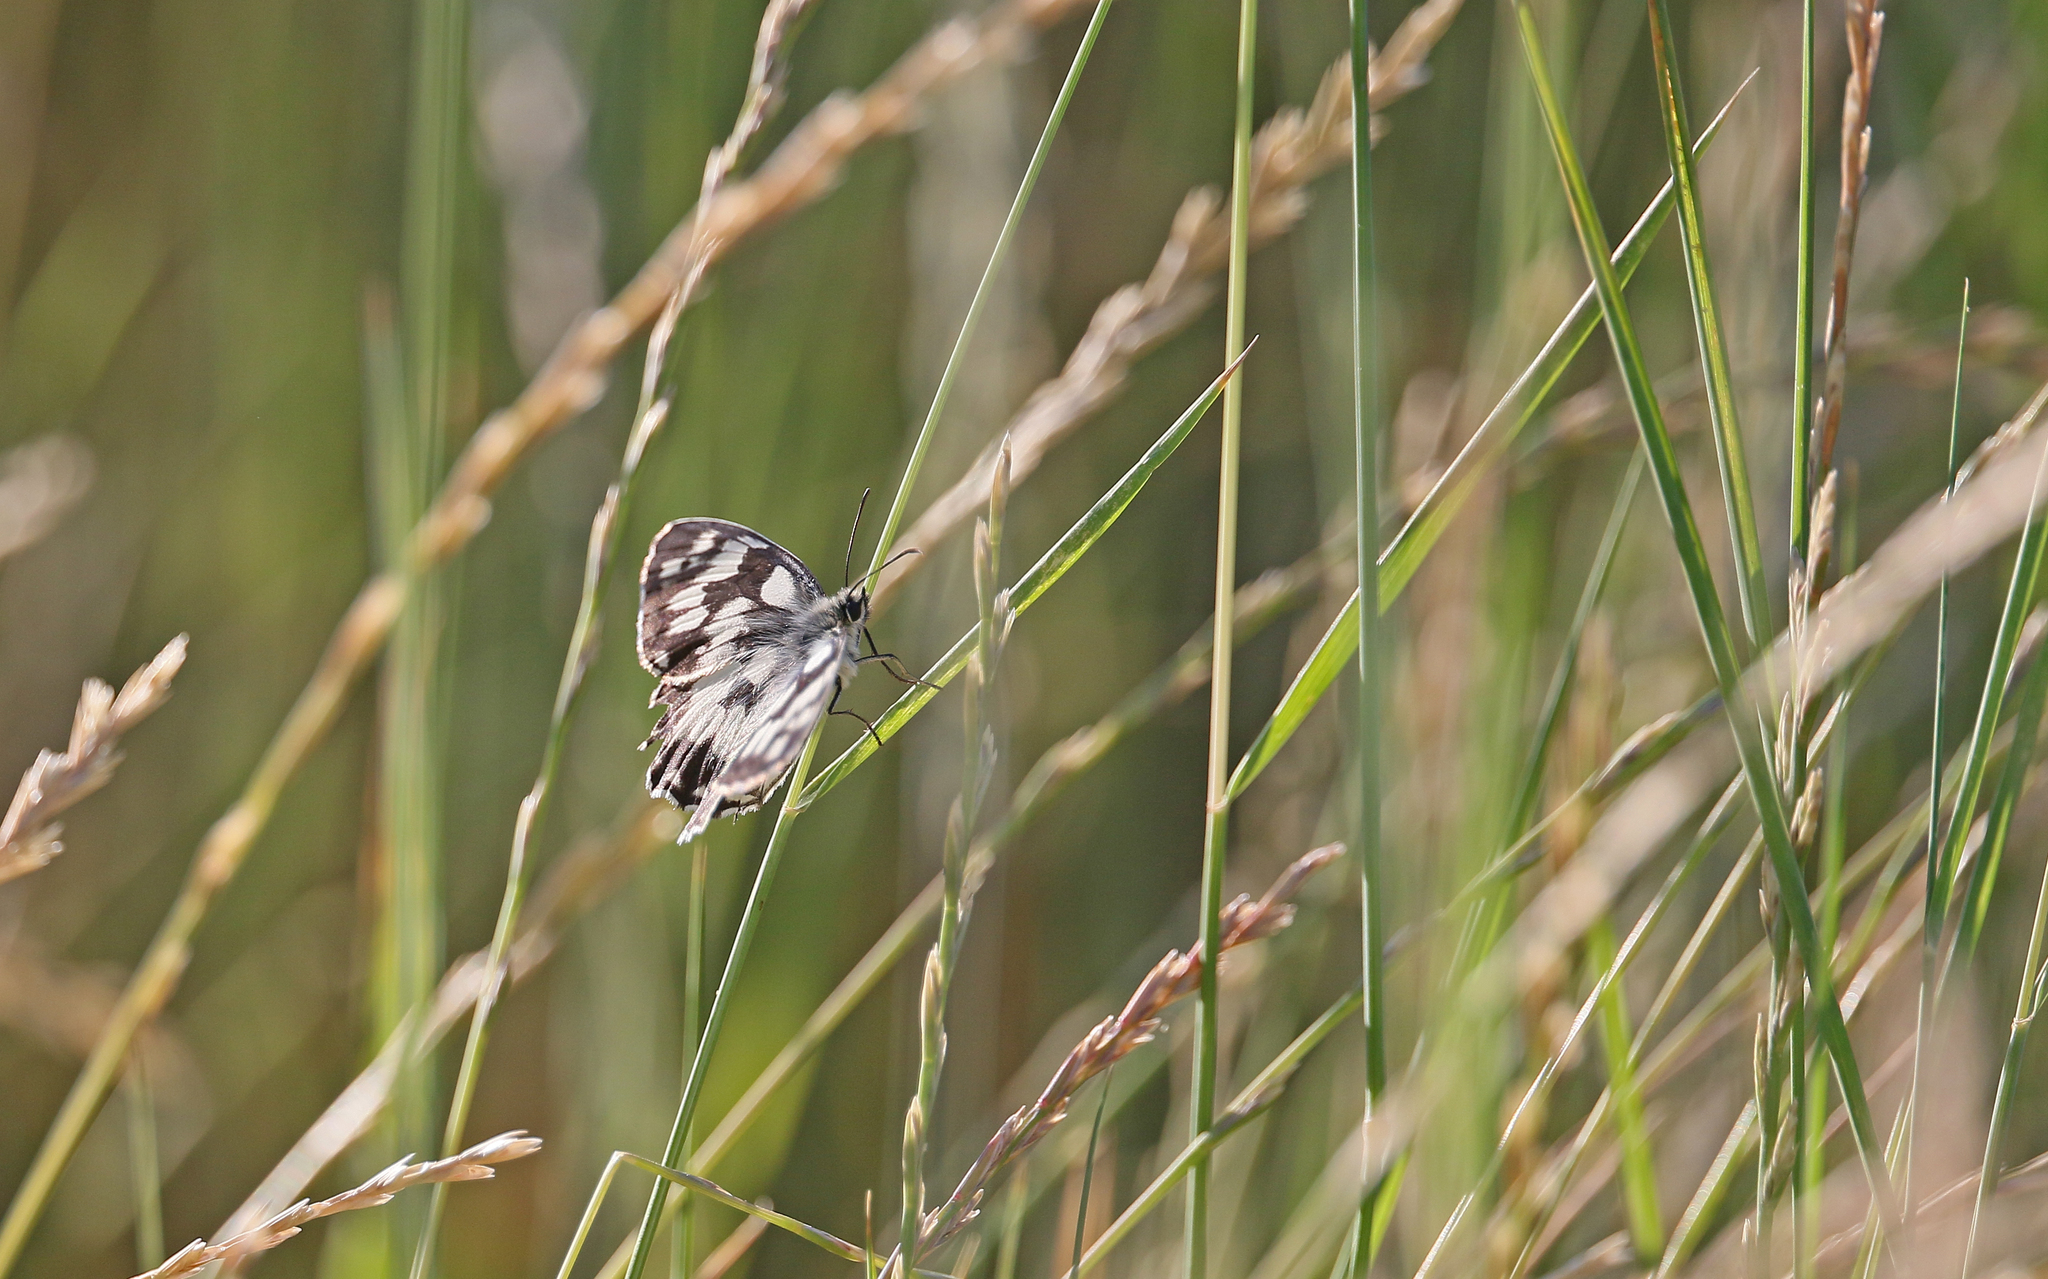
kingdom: Animalia
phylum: Arthropoda
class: Insecta
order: Lepidoptera
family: Nymphalidae
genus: Melanargia
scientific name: Melanargia galathea
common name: Marbled white
